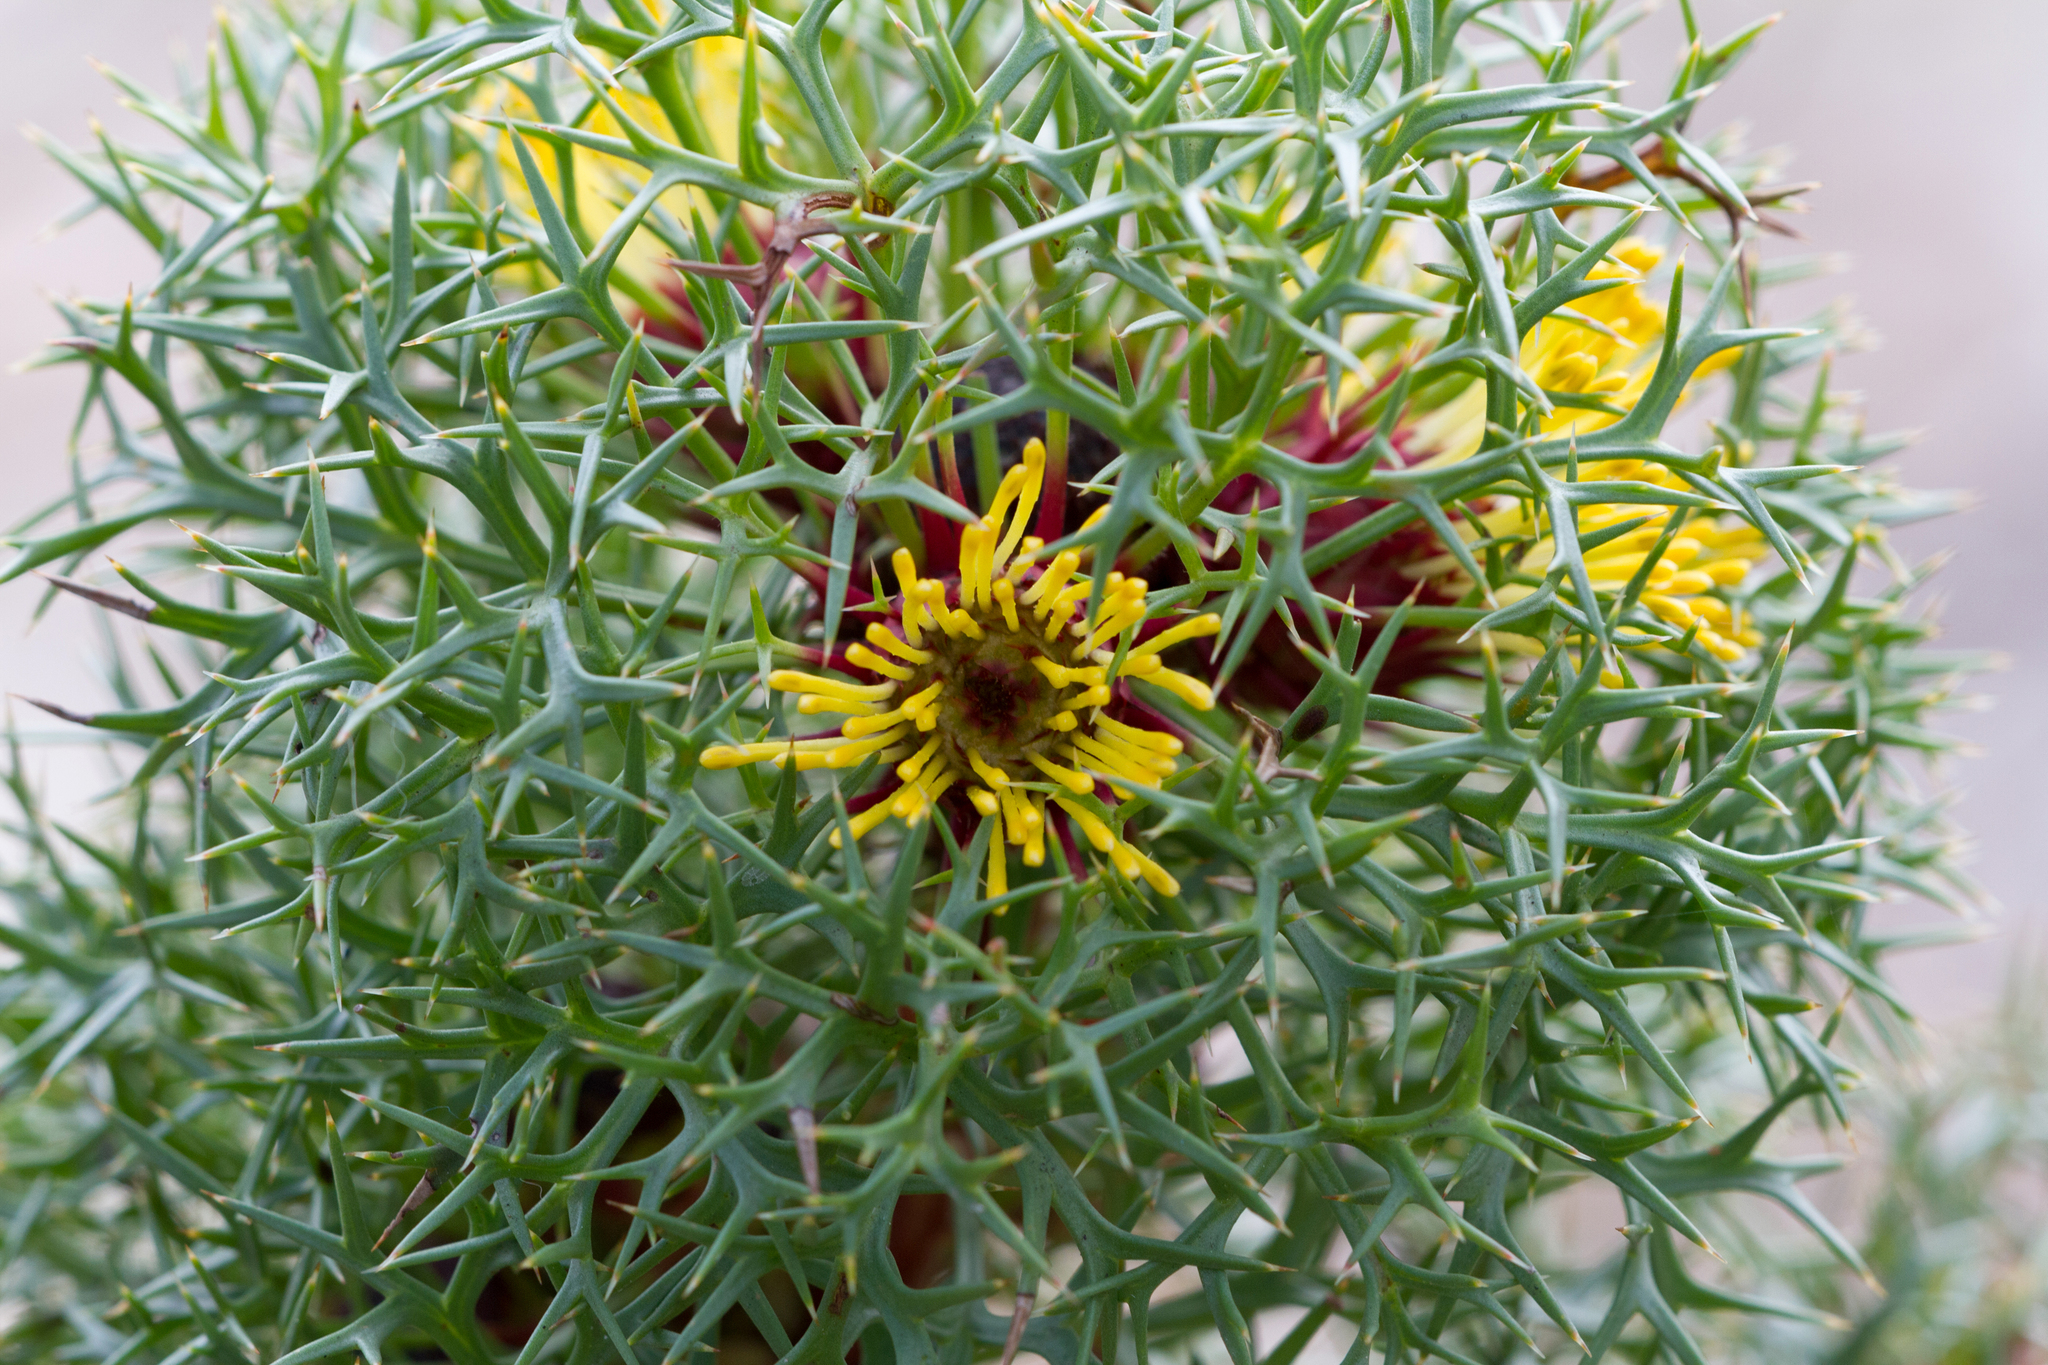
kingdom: Plantae
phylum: Tracheophyta
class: Magnoliopsida
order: Proteales
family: Proteaceae
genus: Isopogon
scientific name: Isopogon ceratophyllus
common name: Horny cone-bush
